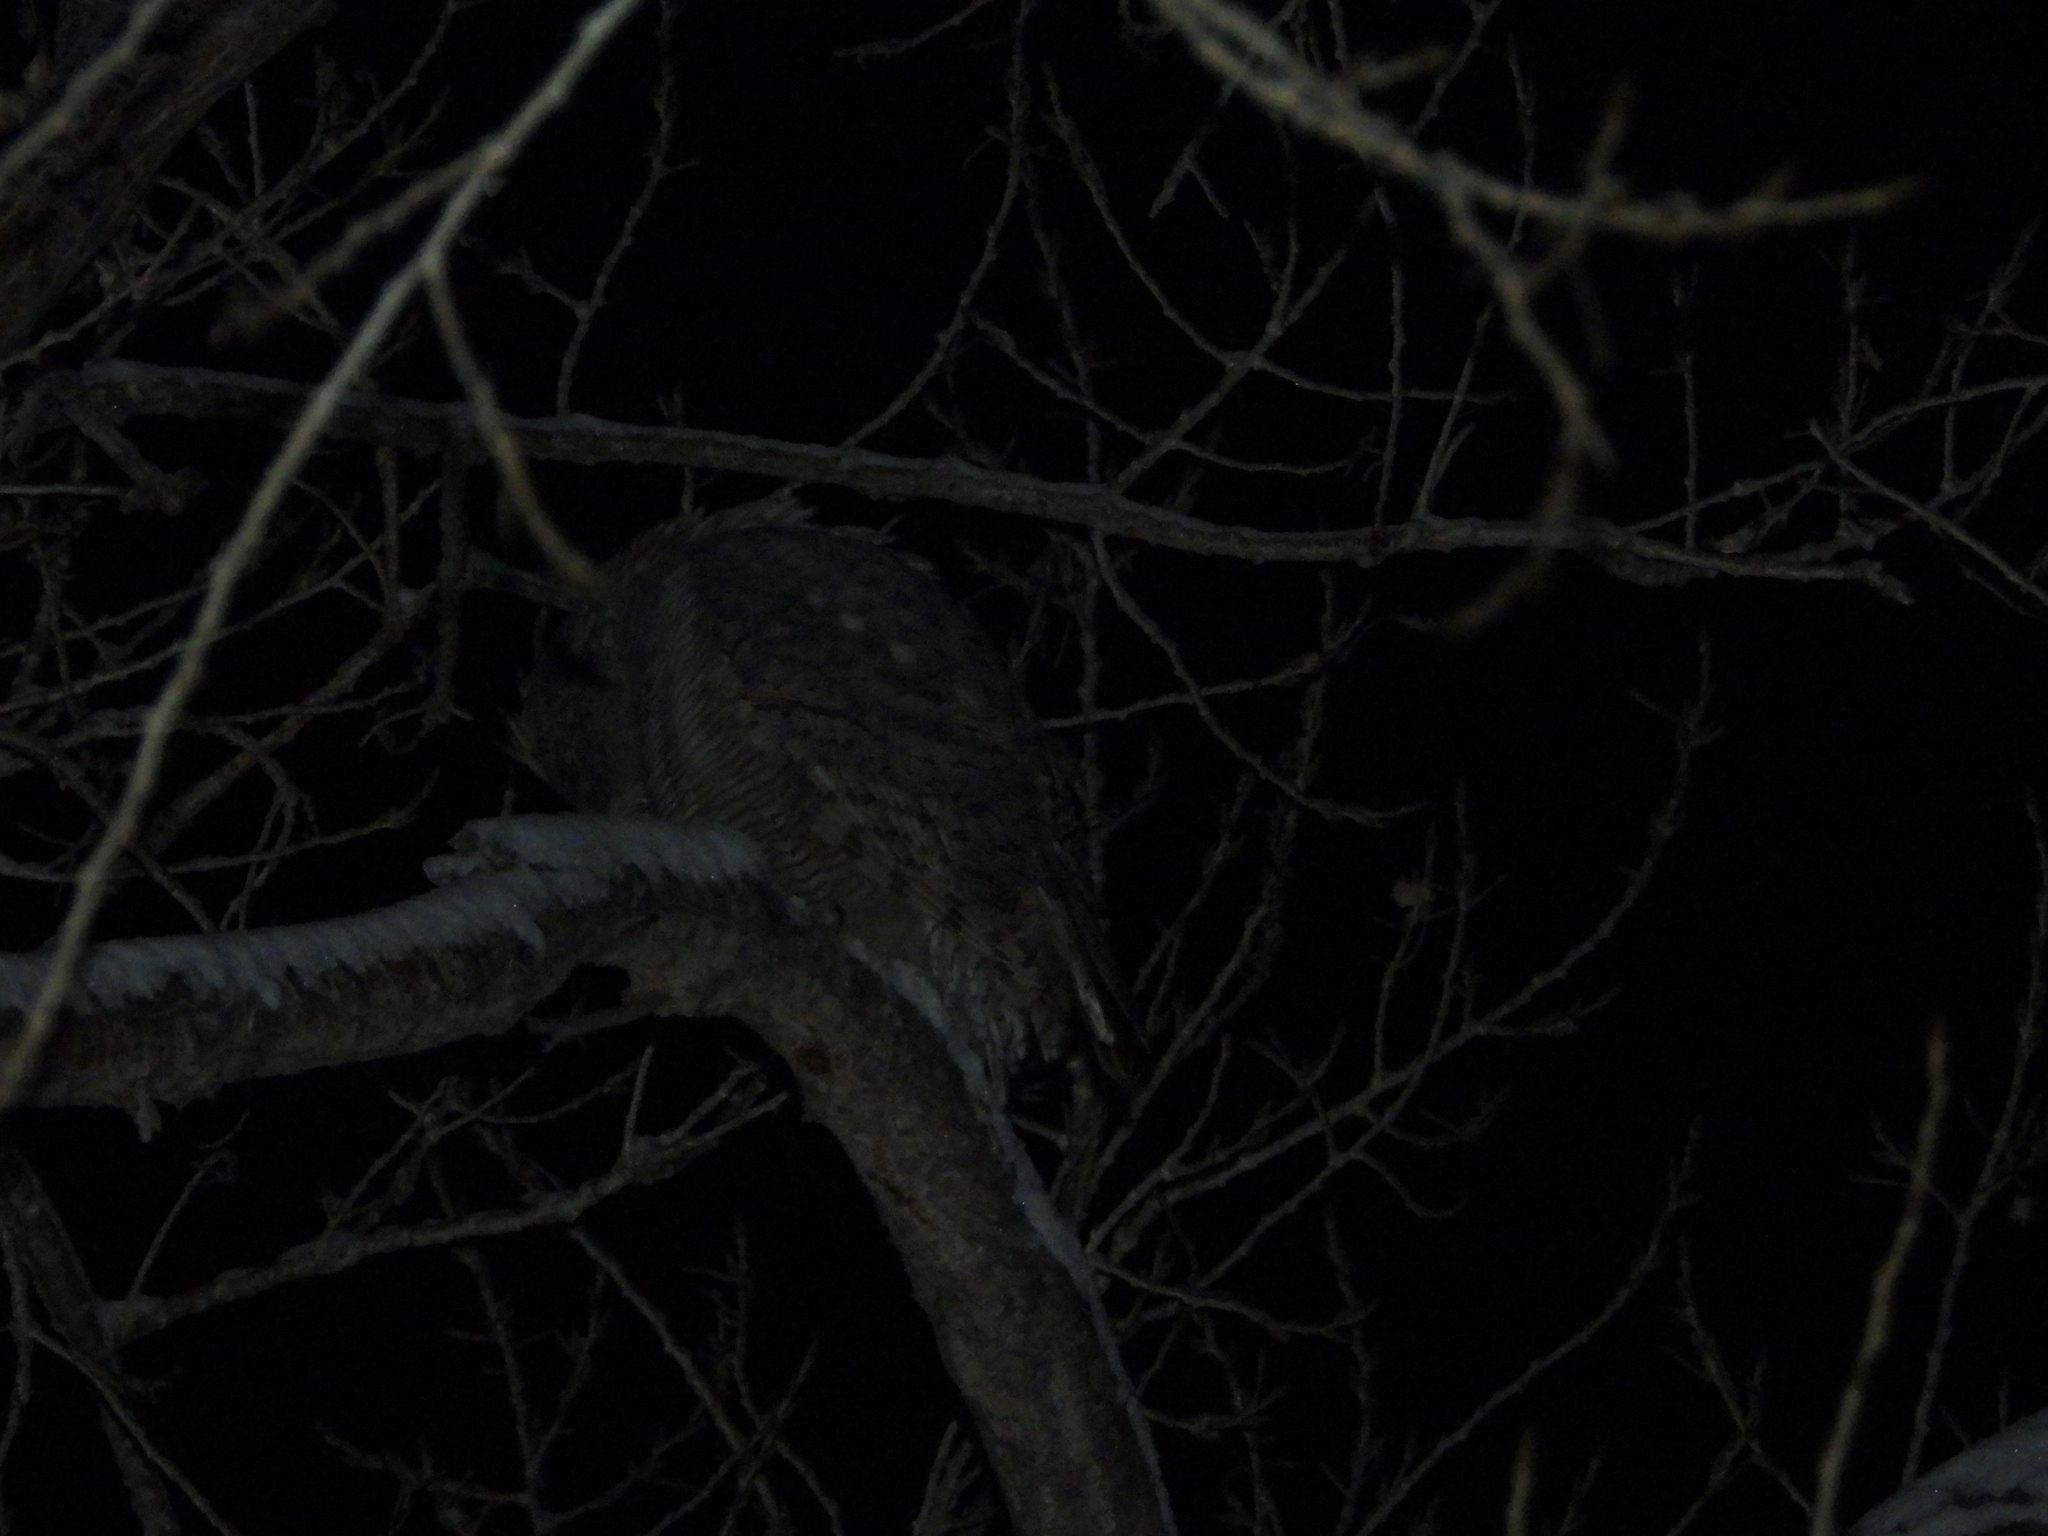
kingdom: Animalia
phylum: Chordata
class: Aves
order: Strigiformes
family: Strigidae
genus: Bubo
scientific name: Bubo virginianus
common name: Great horned owl
